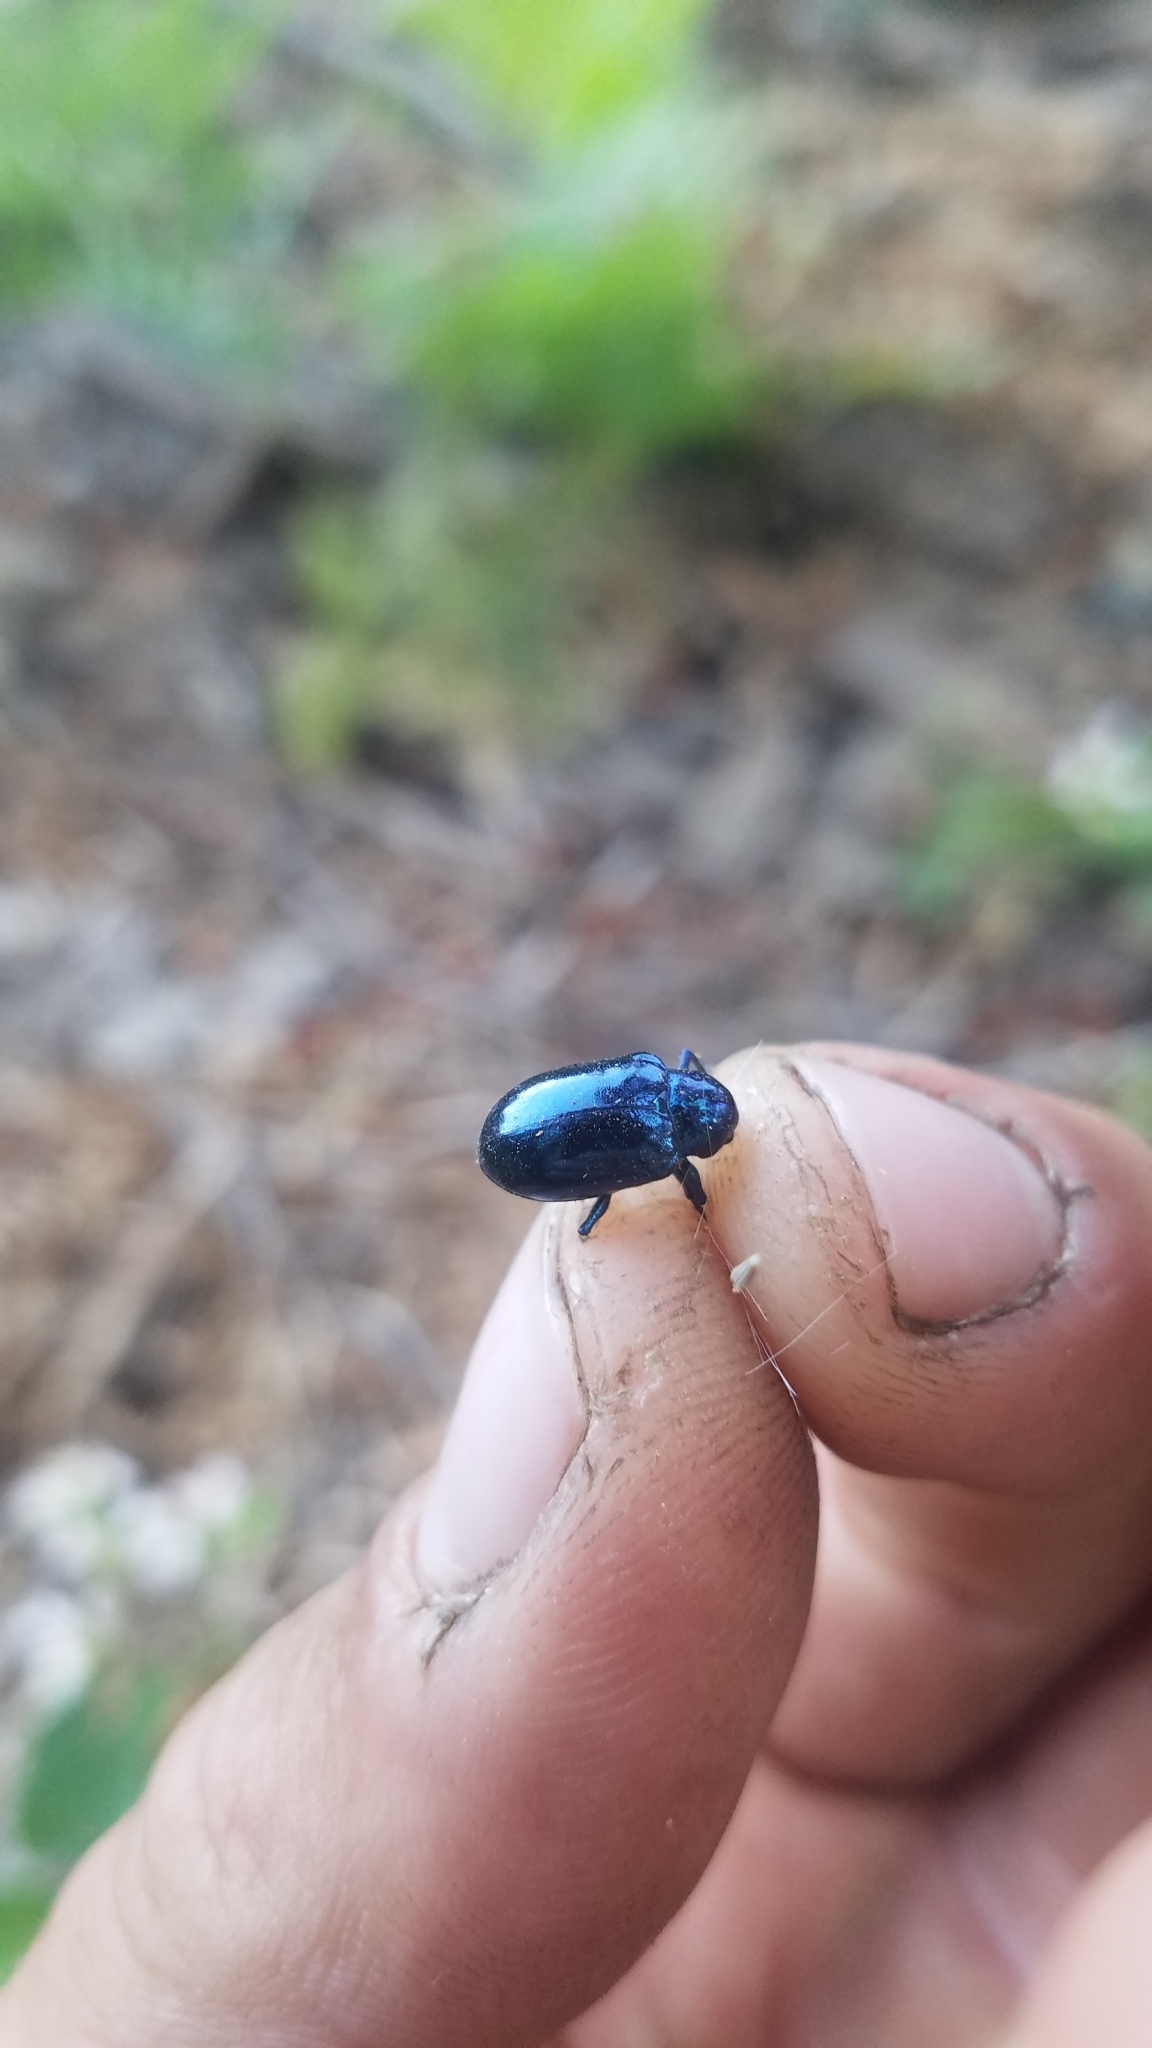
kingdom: Animalia
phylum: Arthropoda
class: Insecta
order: Coleoptera
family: Chrysomelidae
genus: Chrysochus
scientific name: Chrysochus cobaltinus
